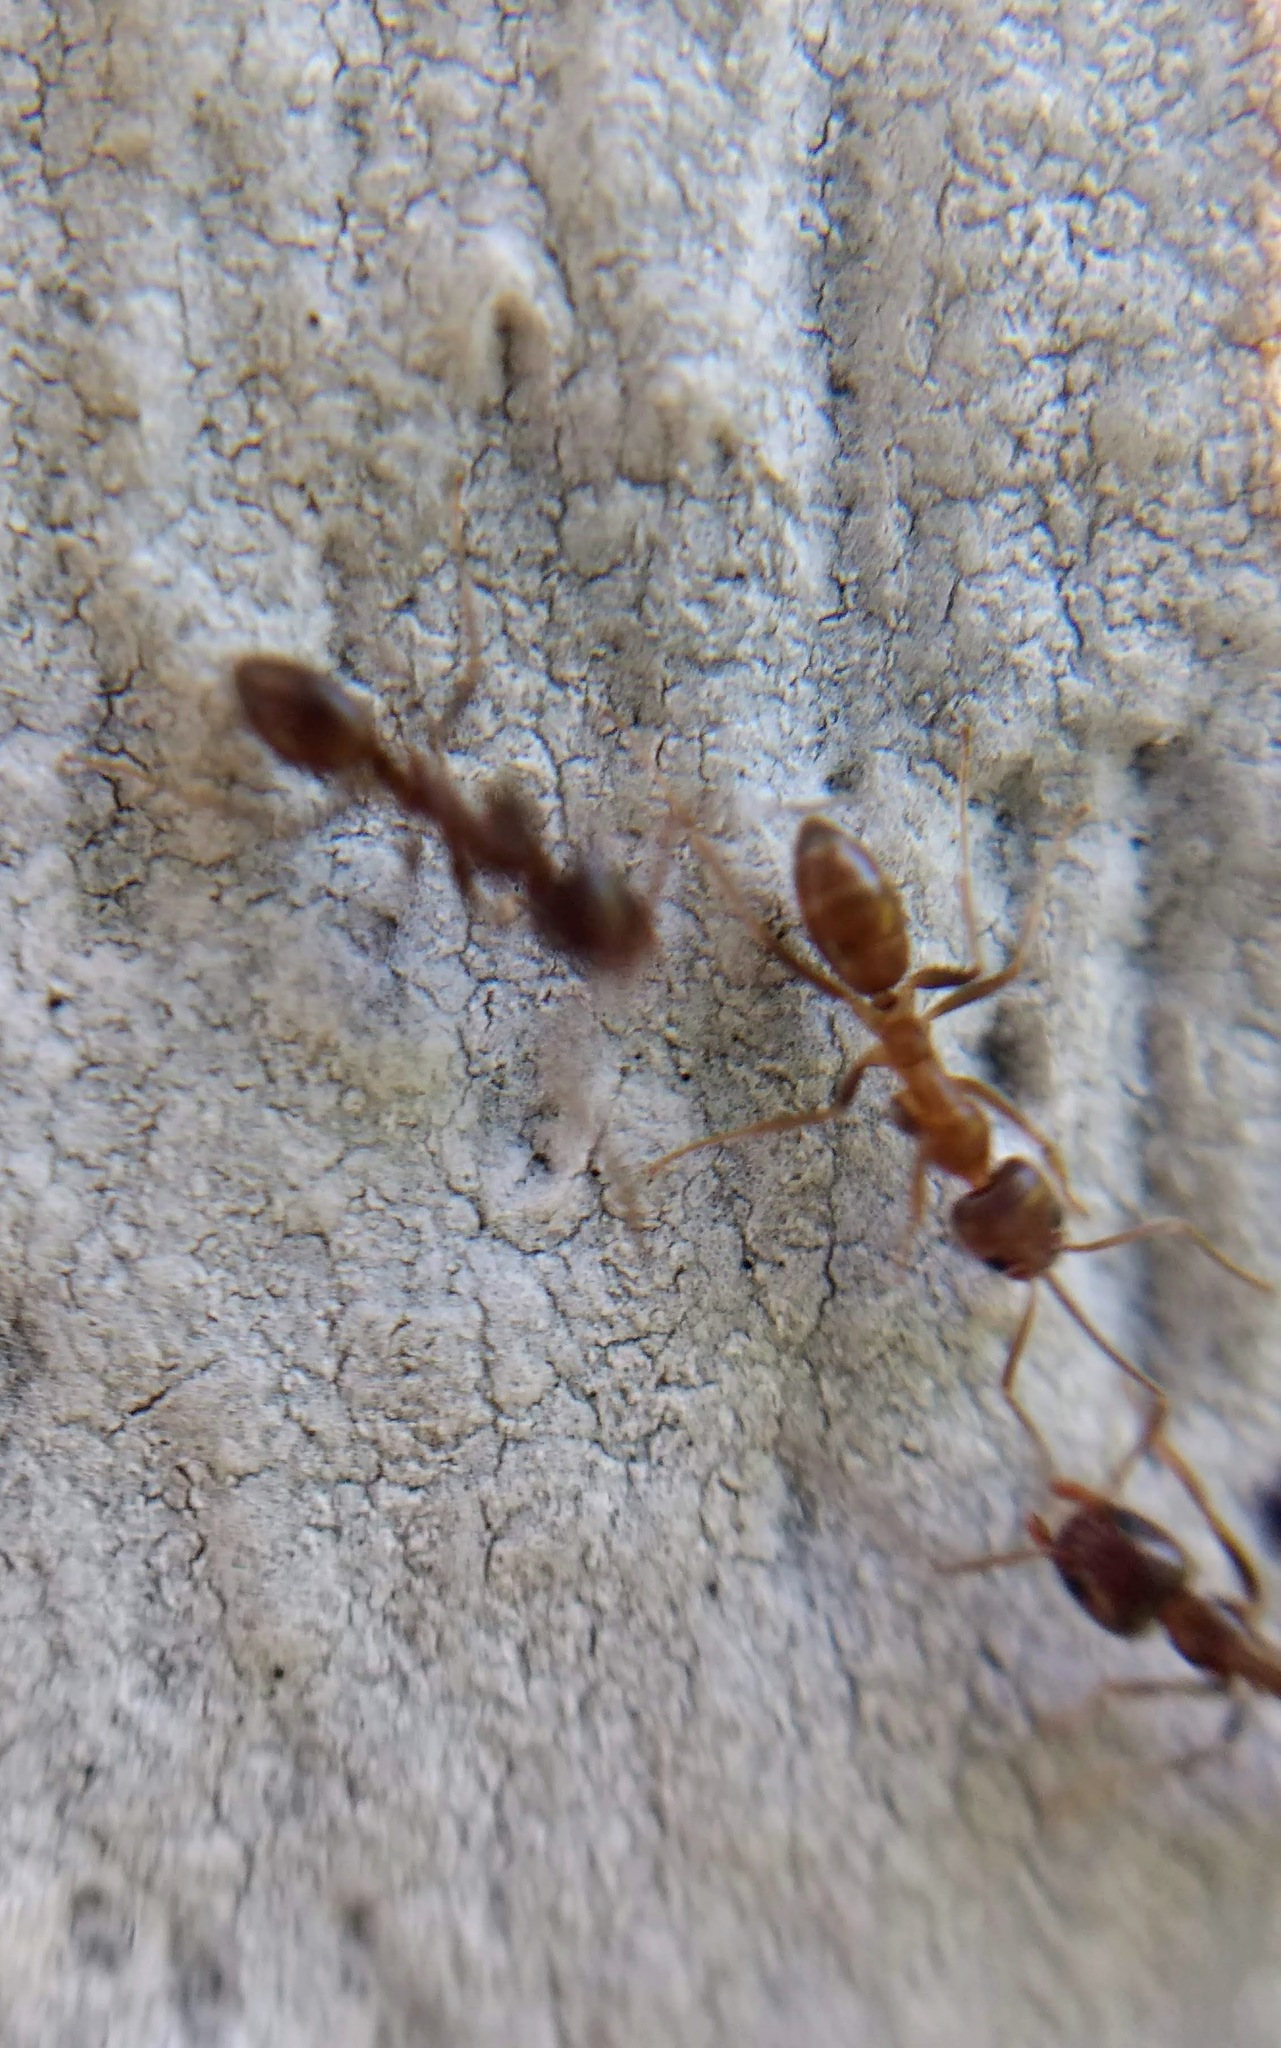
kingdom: Animalia
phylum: Arthropoda
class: Insecta
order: Hymenoptera
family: Formicidae
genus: Linepithema
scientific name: Linepithema humile
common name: Argentine ant
